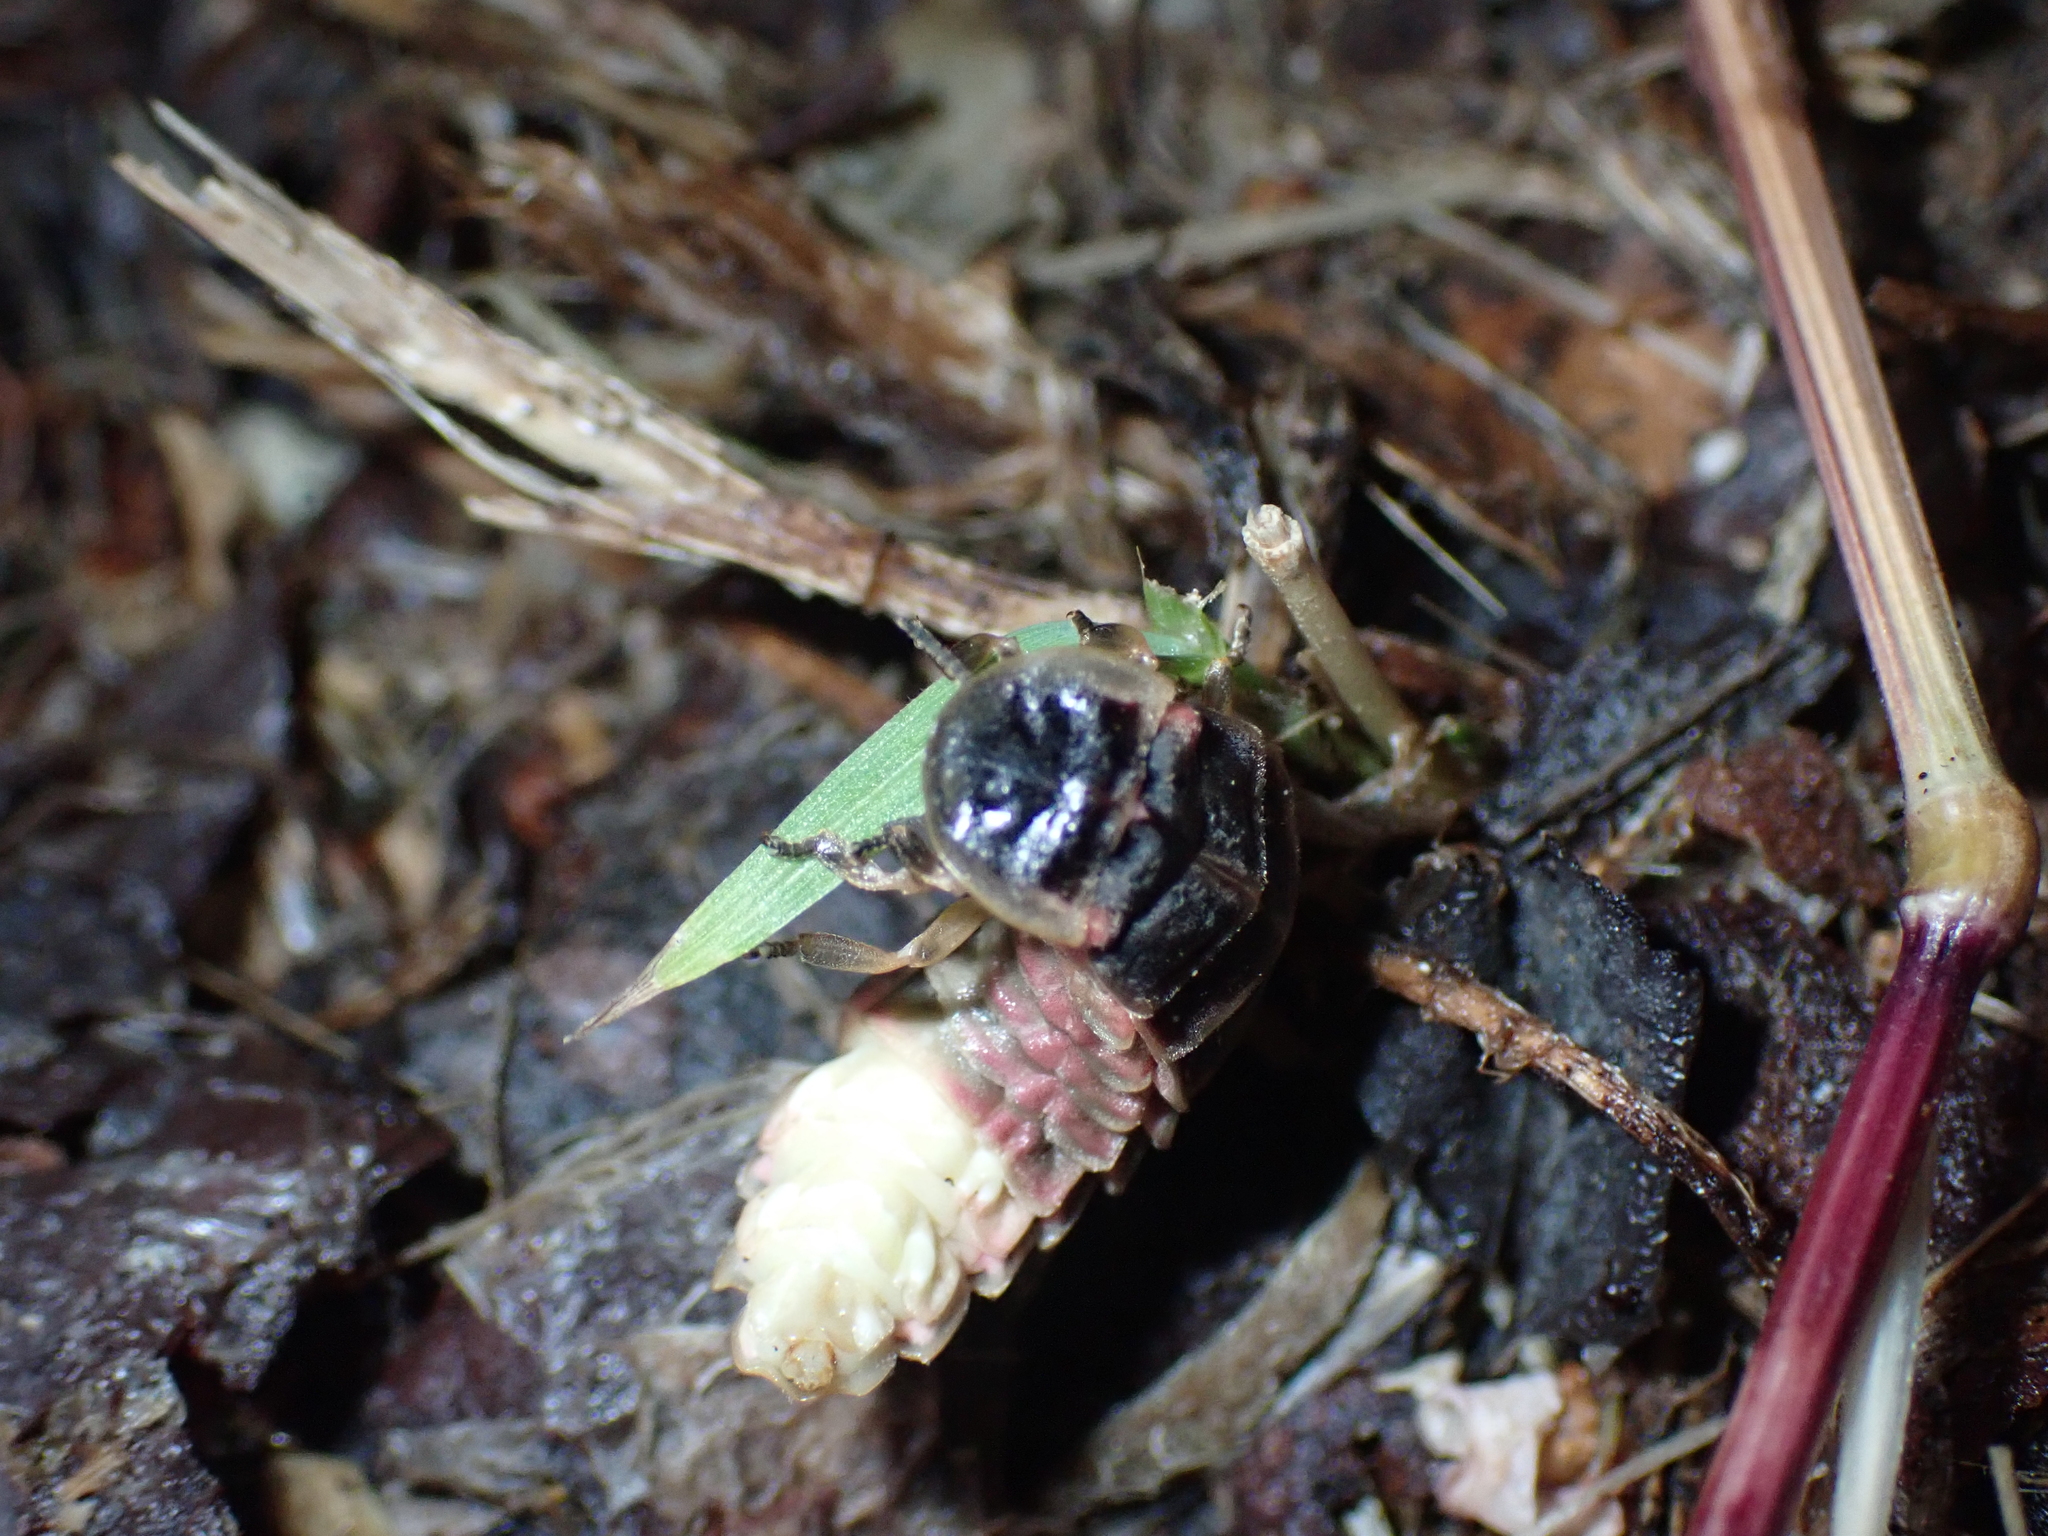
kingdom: Animalia
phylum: Arthropoda
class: Insecta
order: Coleoptera
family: Lampyridae
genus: Lampyris
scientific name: Lampyris noctiluca
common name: Glow-worm
